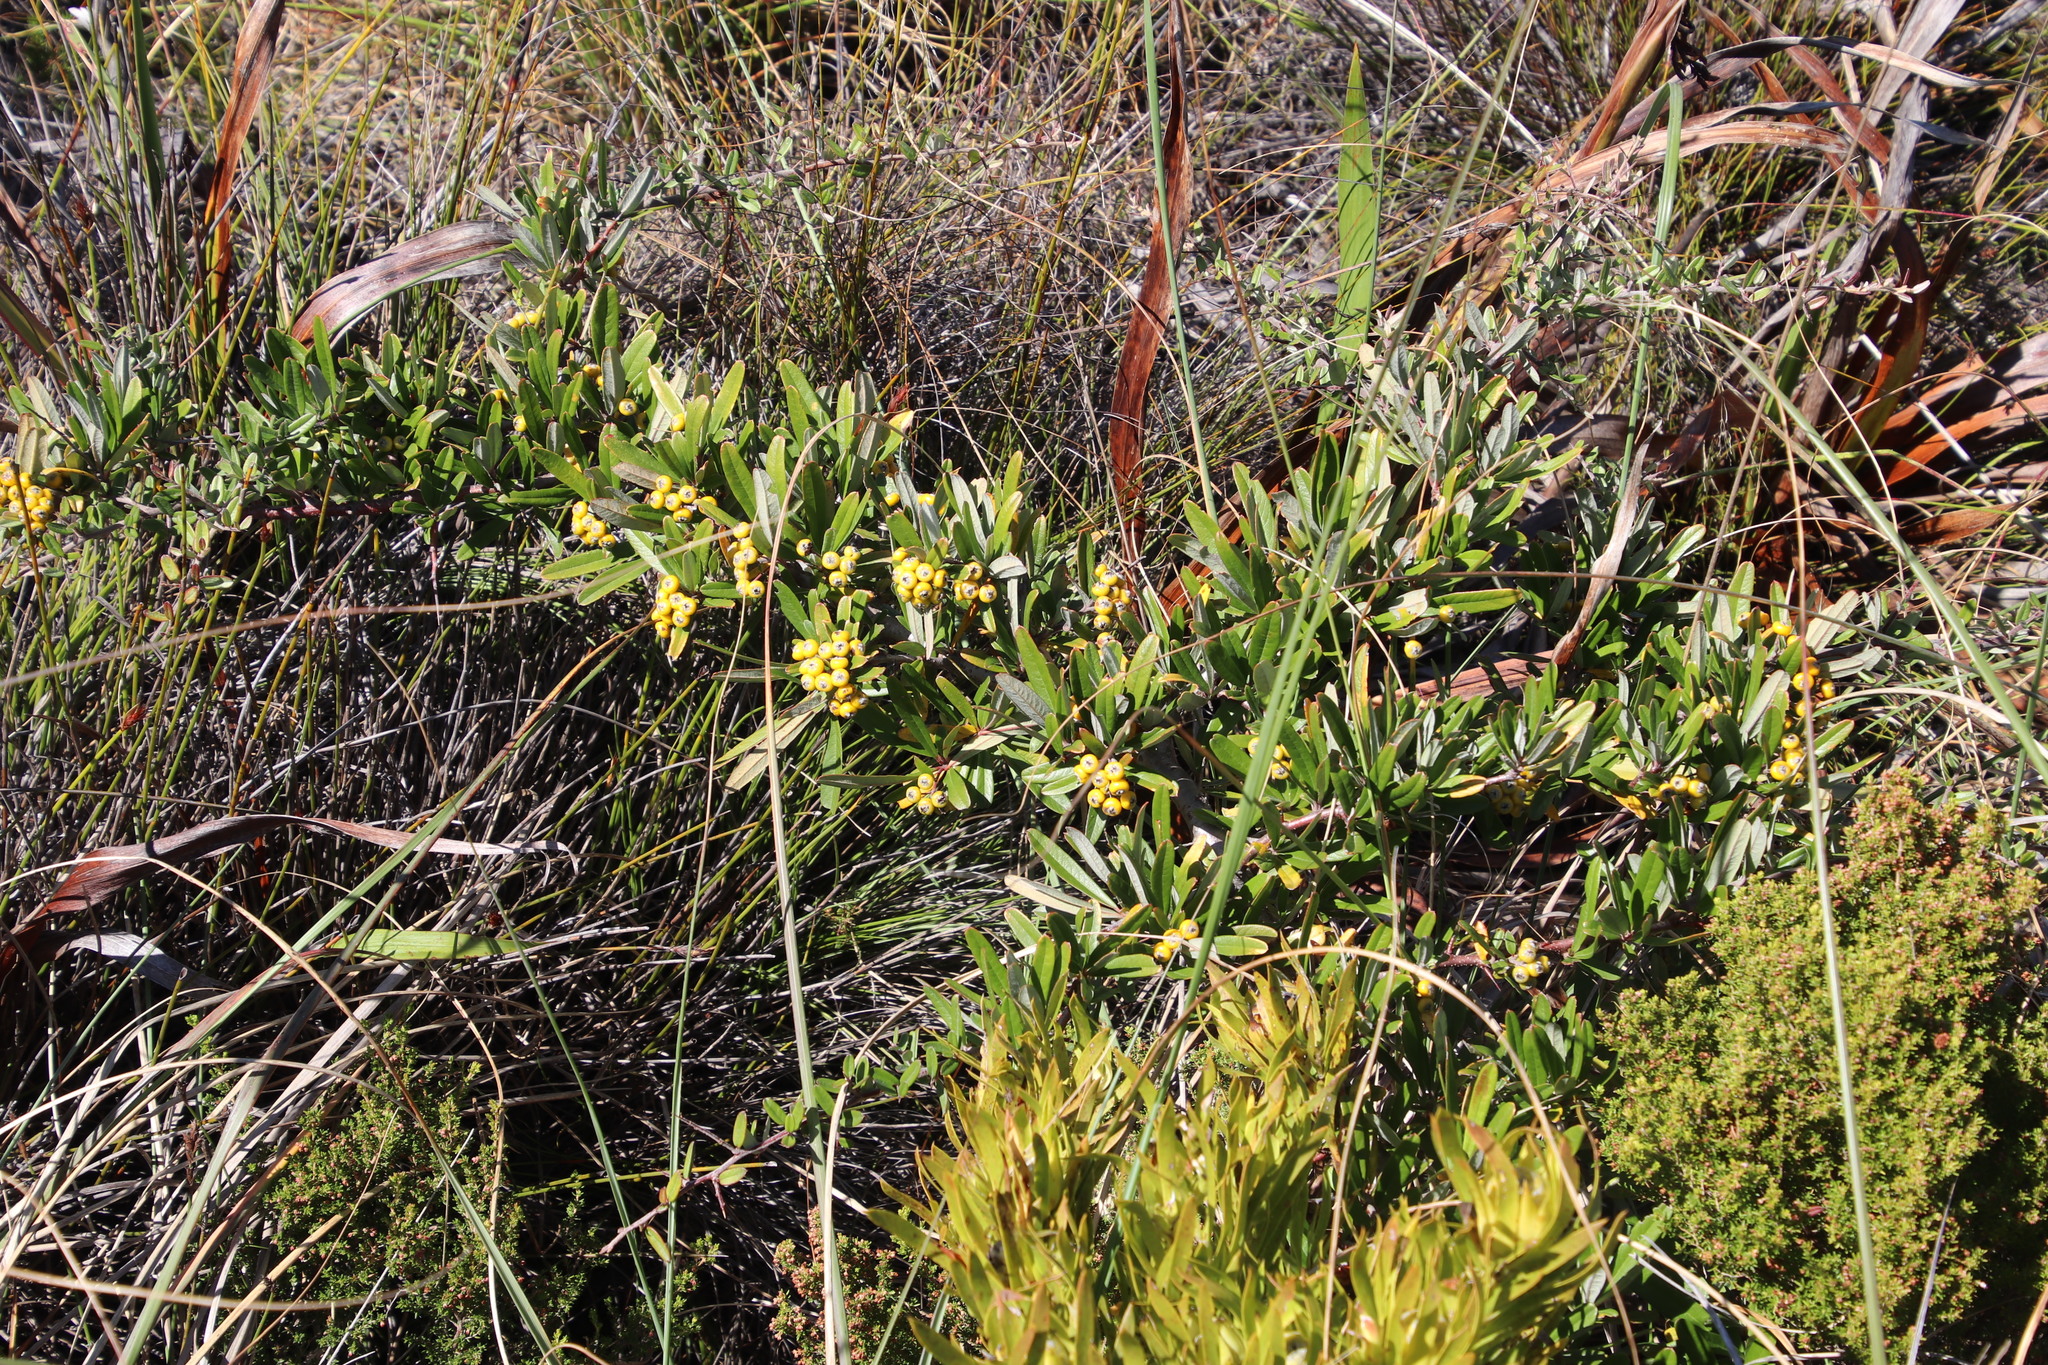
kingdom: Plantae
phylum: Tracheophyta
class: Magnoliopsida
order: Rosales
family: Rosaceae
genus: Pyracantha
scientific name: Pyracantha angustifolia
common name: Narrowleaf firethorn
